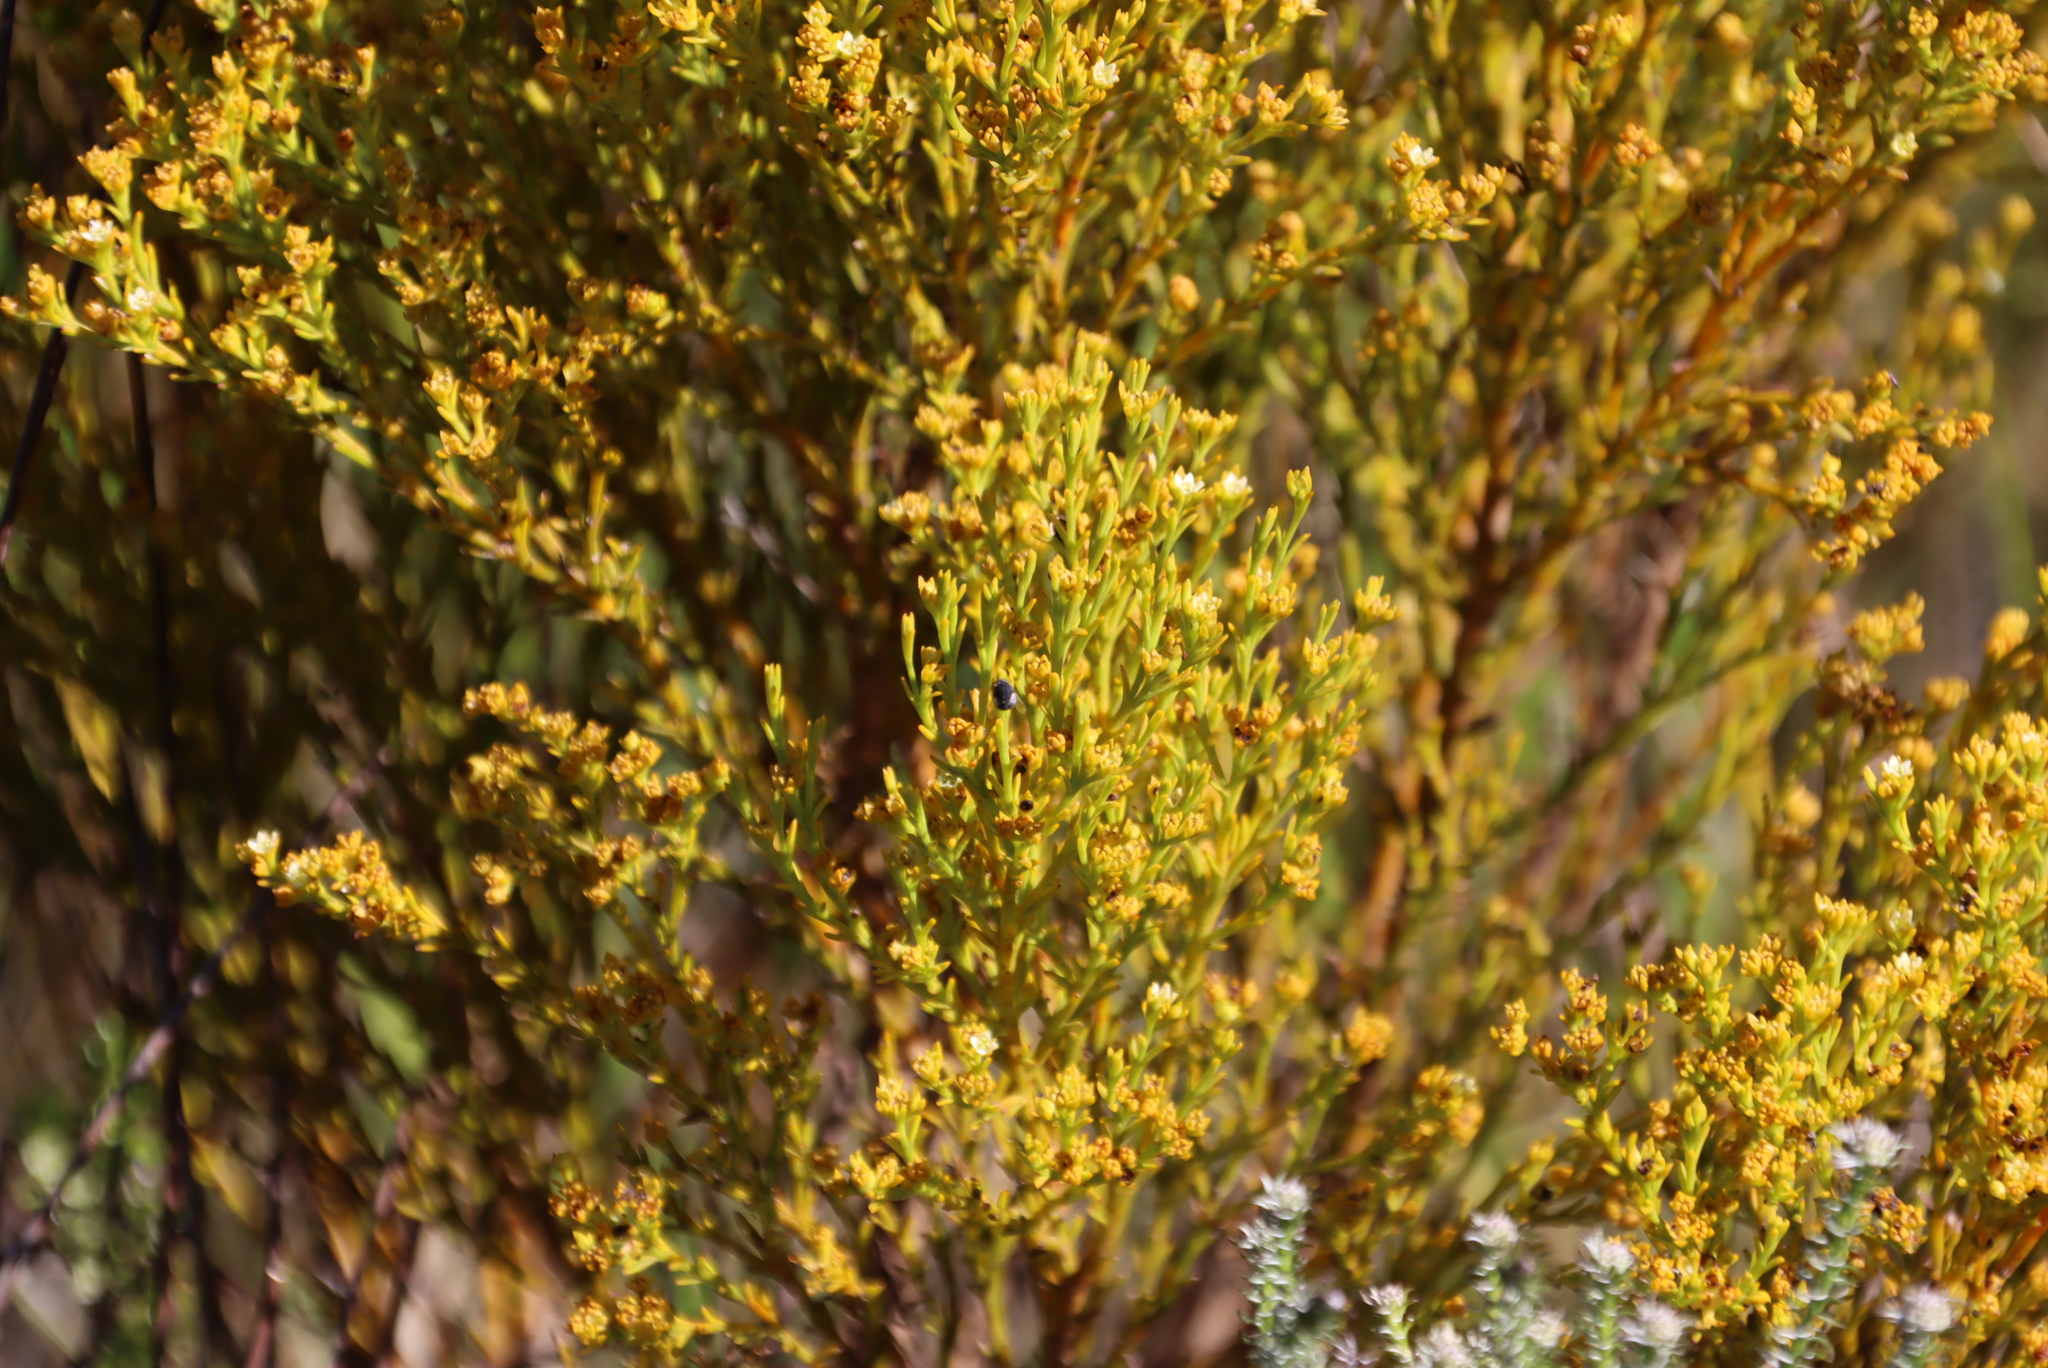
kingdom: Plantae
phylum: Tracheophyta
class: Magnoliopsida
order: Santalales
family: Thesiaceae
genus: Thesium
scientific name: Thesium quinqueflorum
